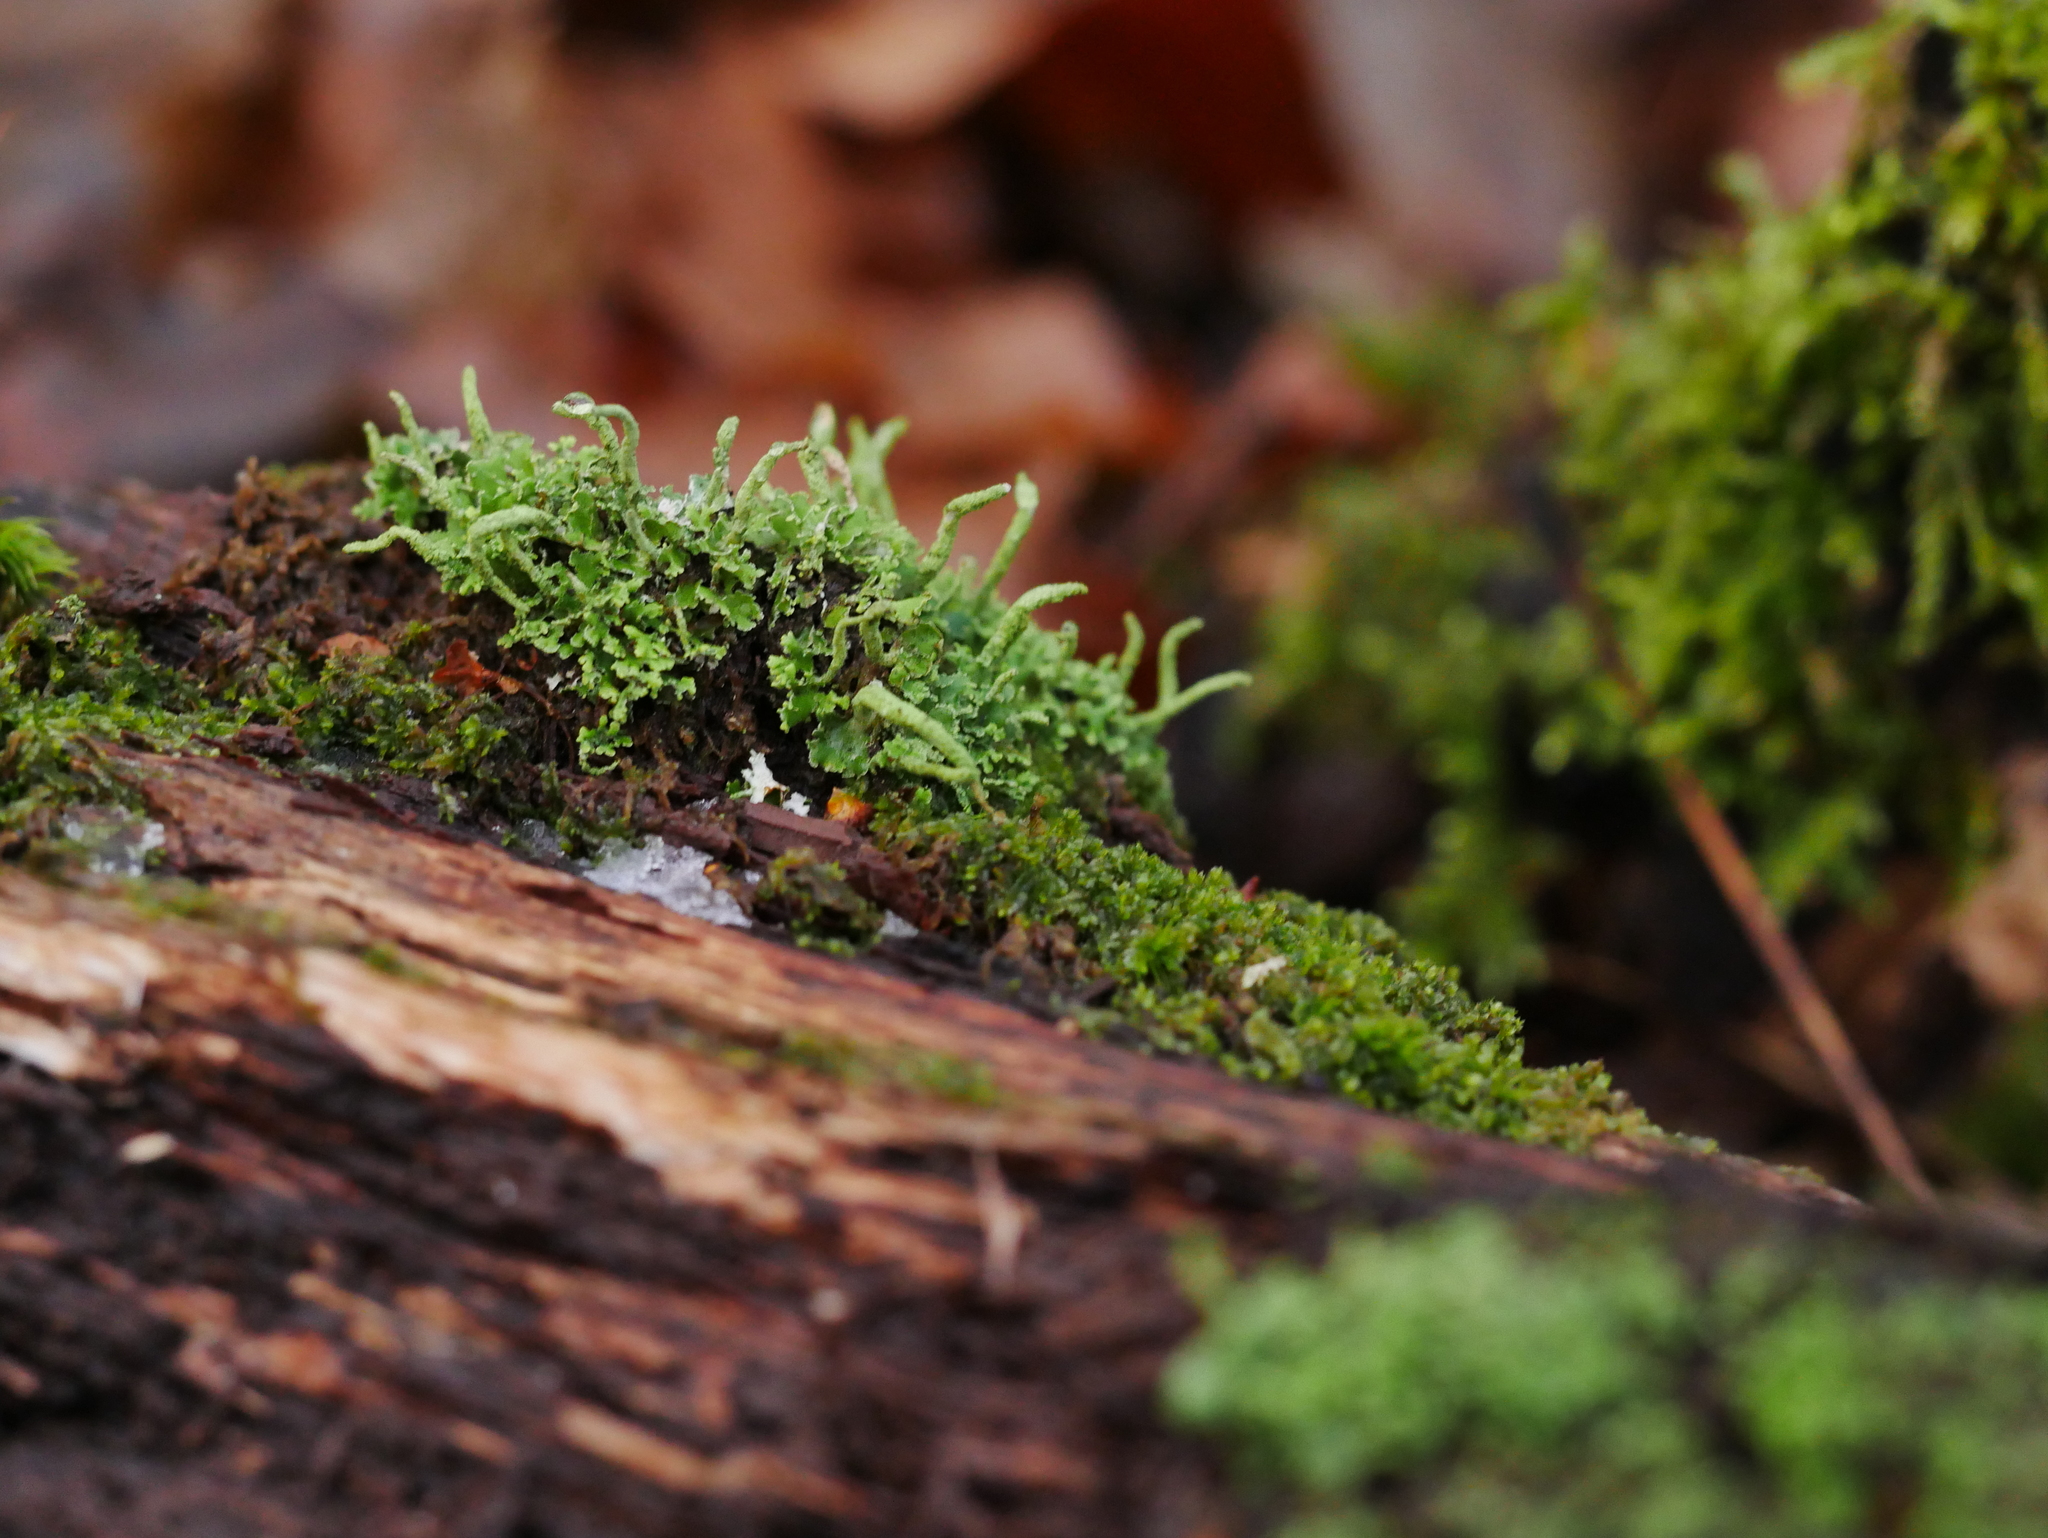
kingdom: Fungi
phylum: Ascomycota
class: Lecanoromycetes
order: Lecanorales
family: Cladoniaceae
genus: Cladonia
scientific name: Cladonia coniocraea
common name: Common powderhorn
